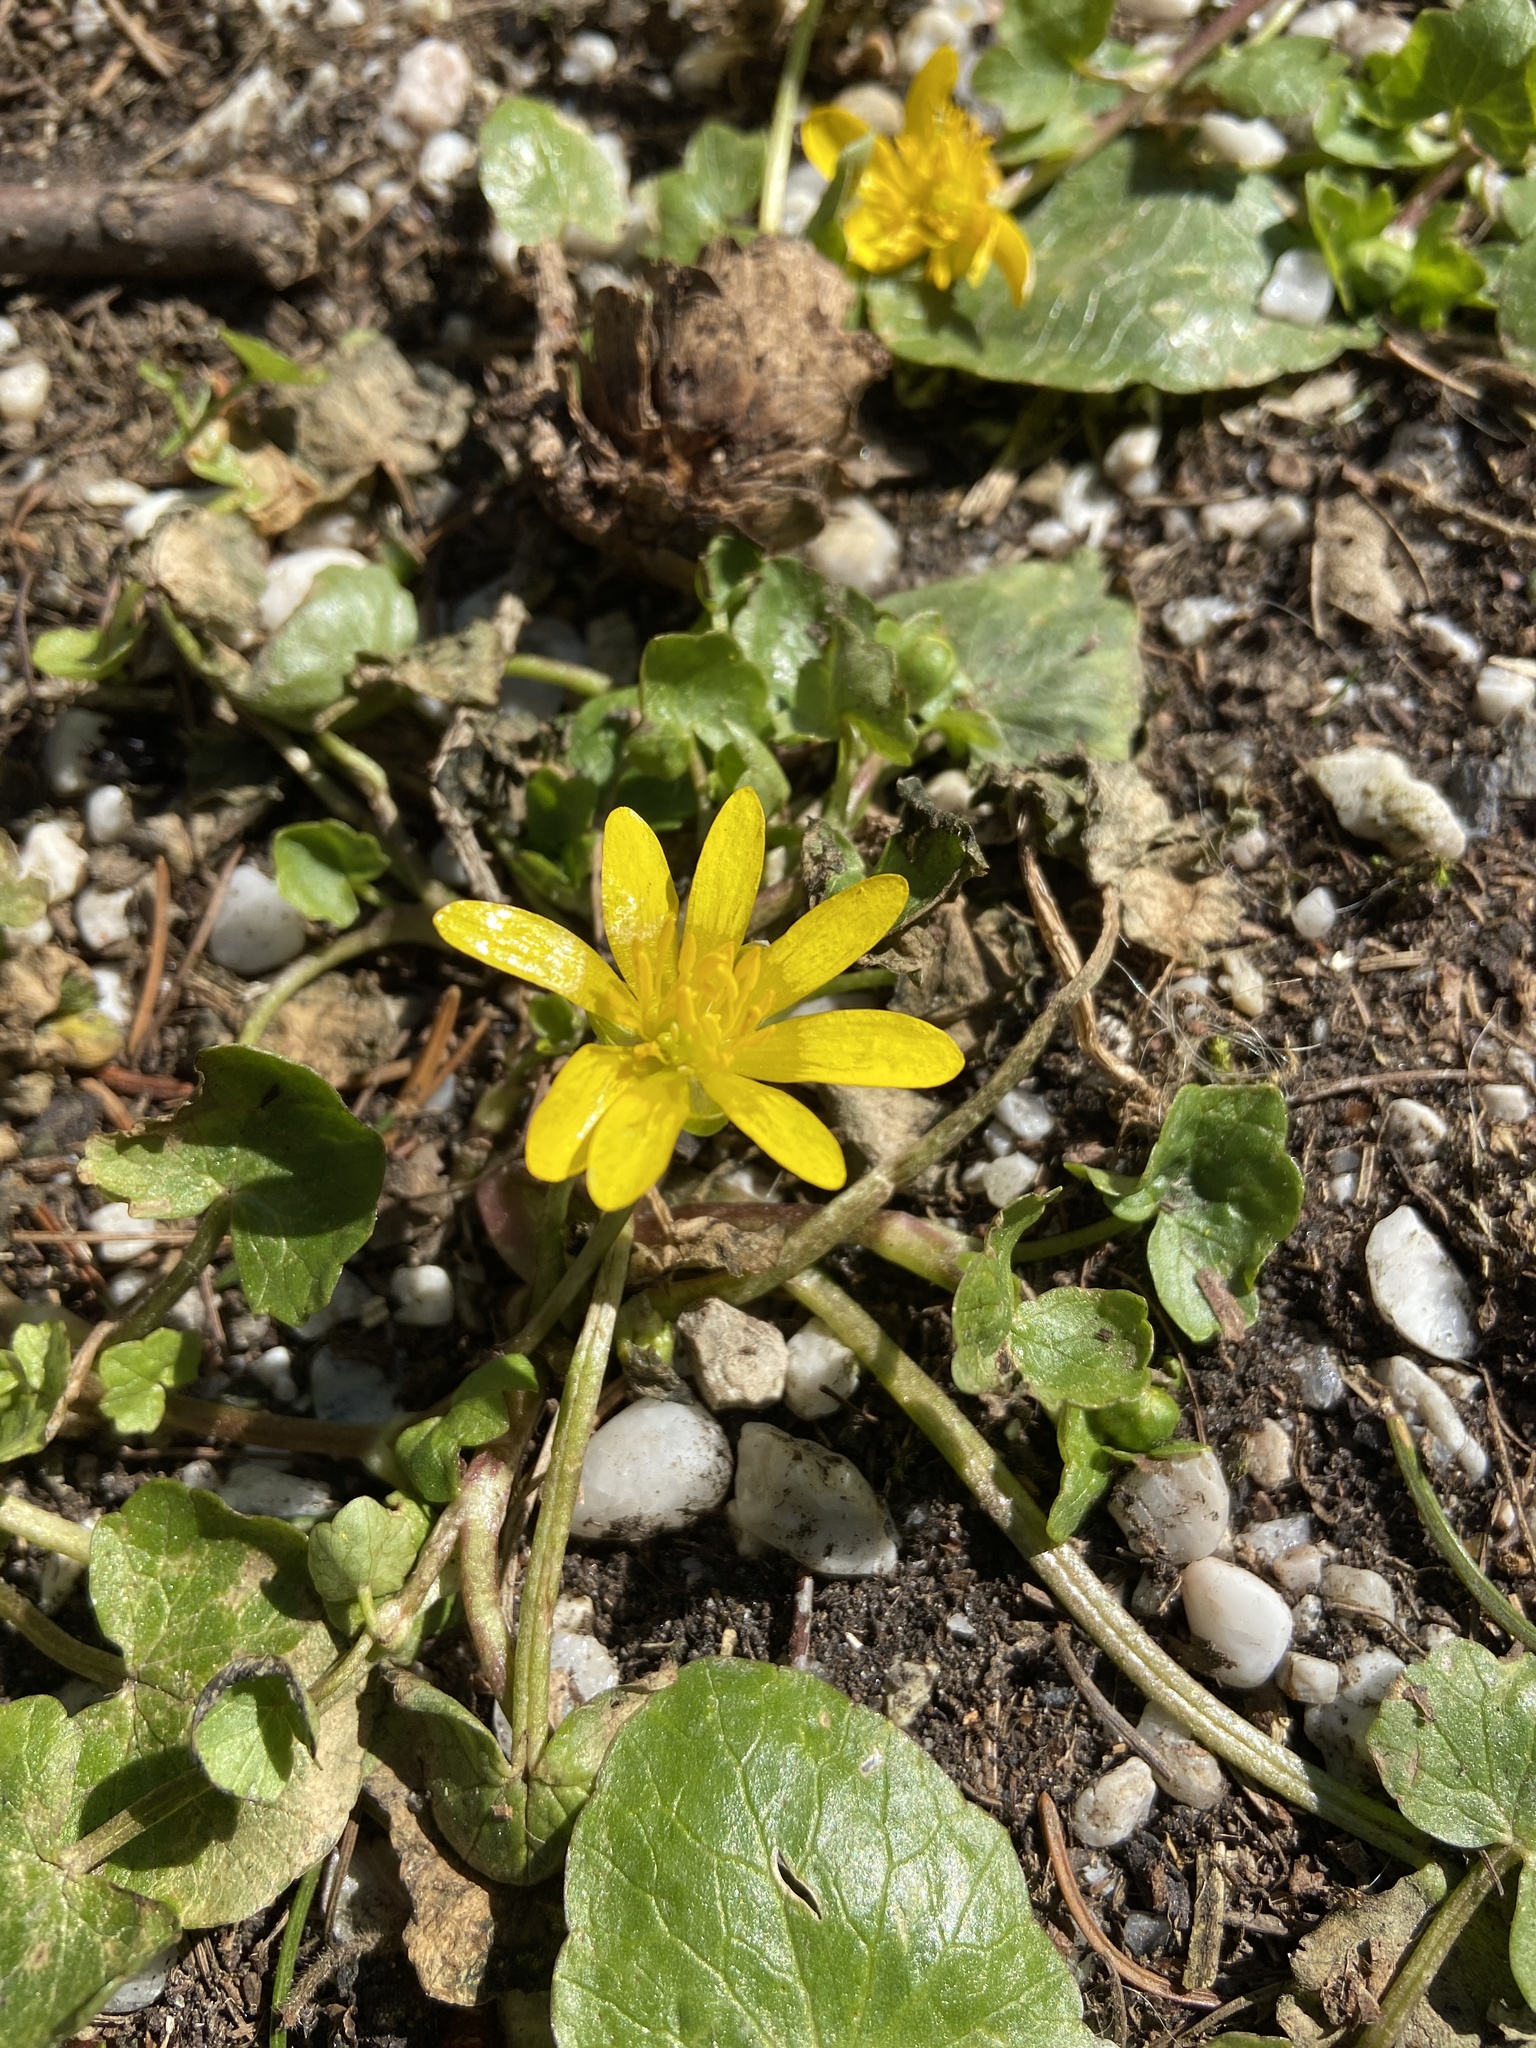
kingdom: Plantae
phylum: Tracheophyta
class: Magnoliopsida
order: Ranunculales
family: Ranunculaceae
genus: Ficaria
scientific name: Ficaria verna
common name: Lesser celandine
